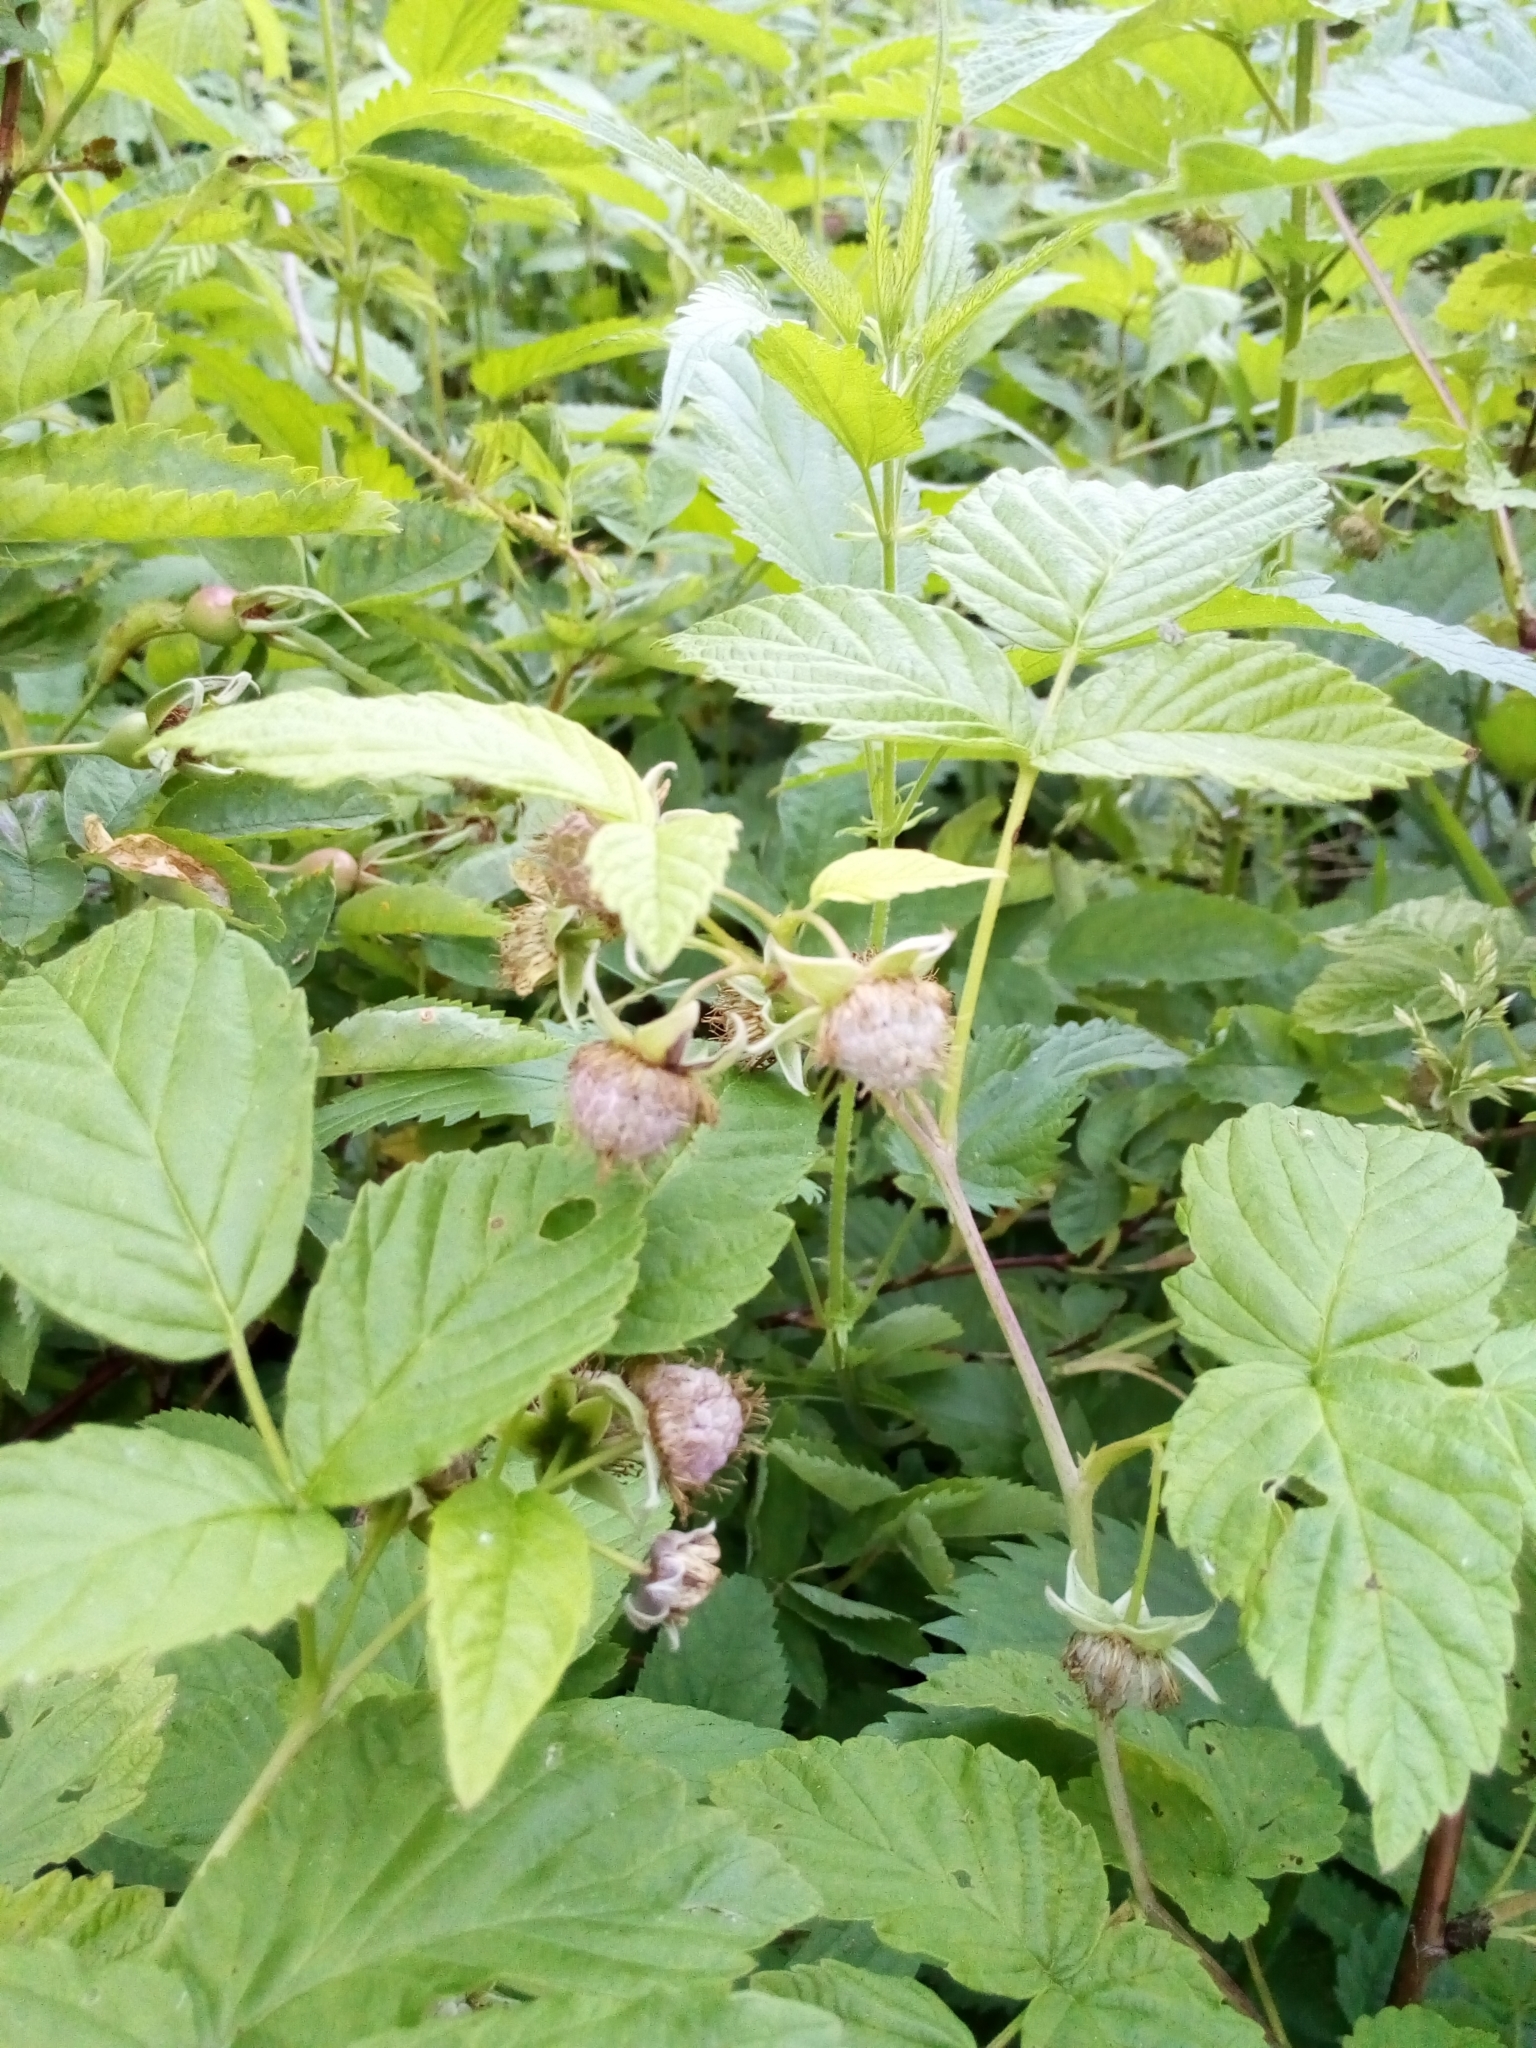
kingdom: Plantae
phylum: Tracheophyta
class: Magnoliopsida
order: Rosales
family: Rosaceae
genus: Rubus
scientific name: Rubus idaeus
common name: Raspberry
